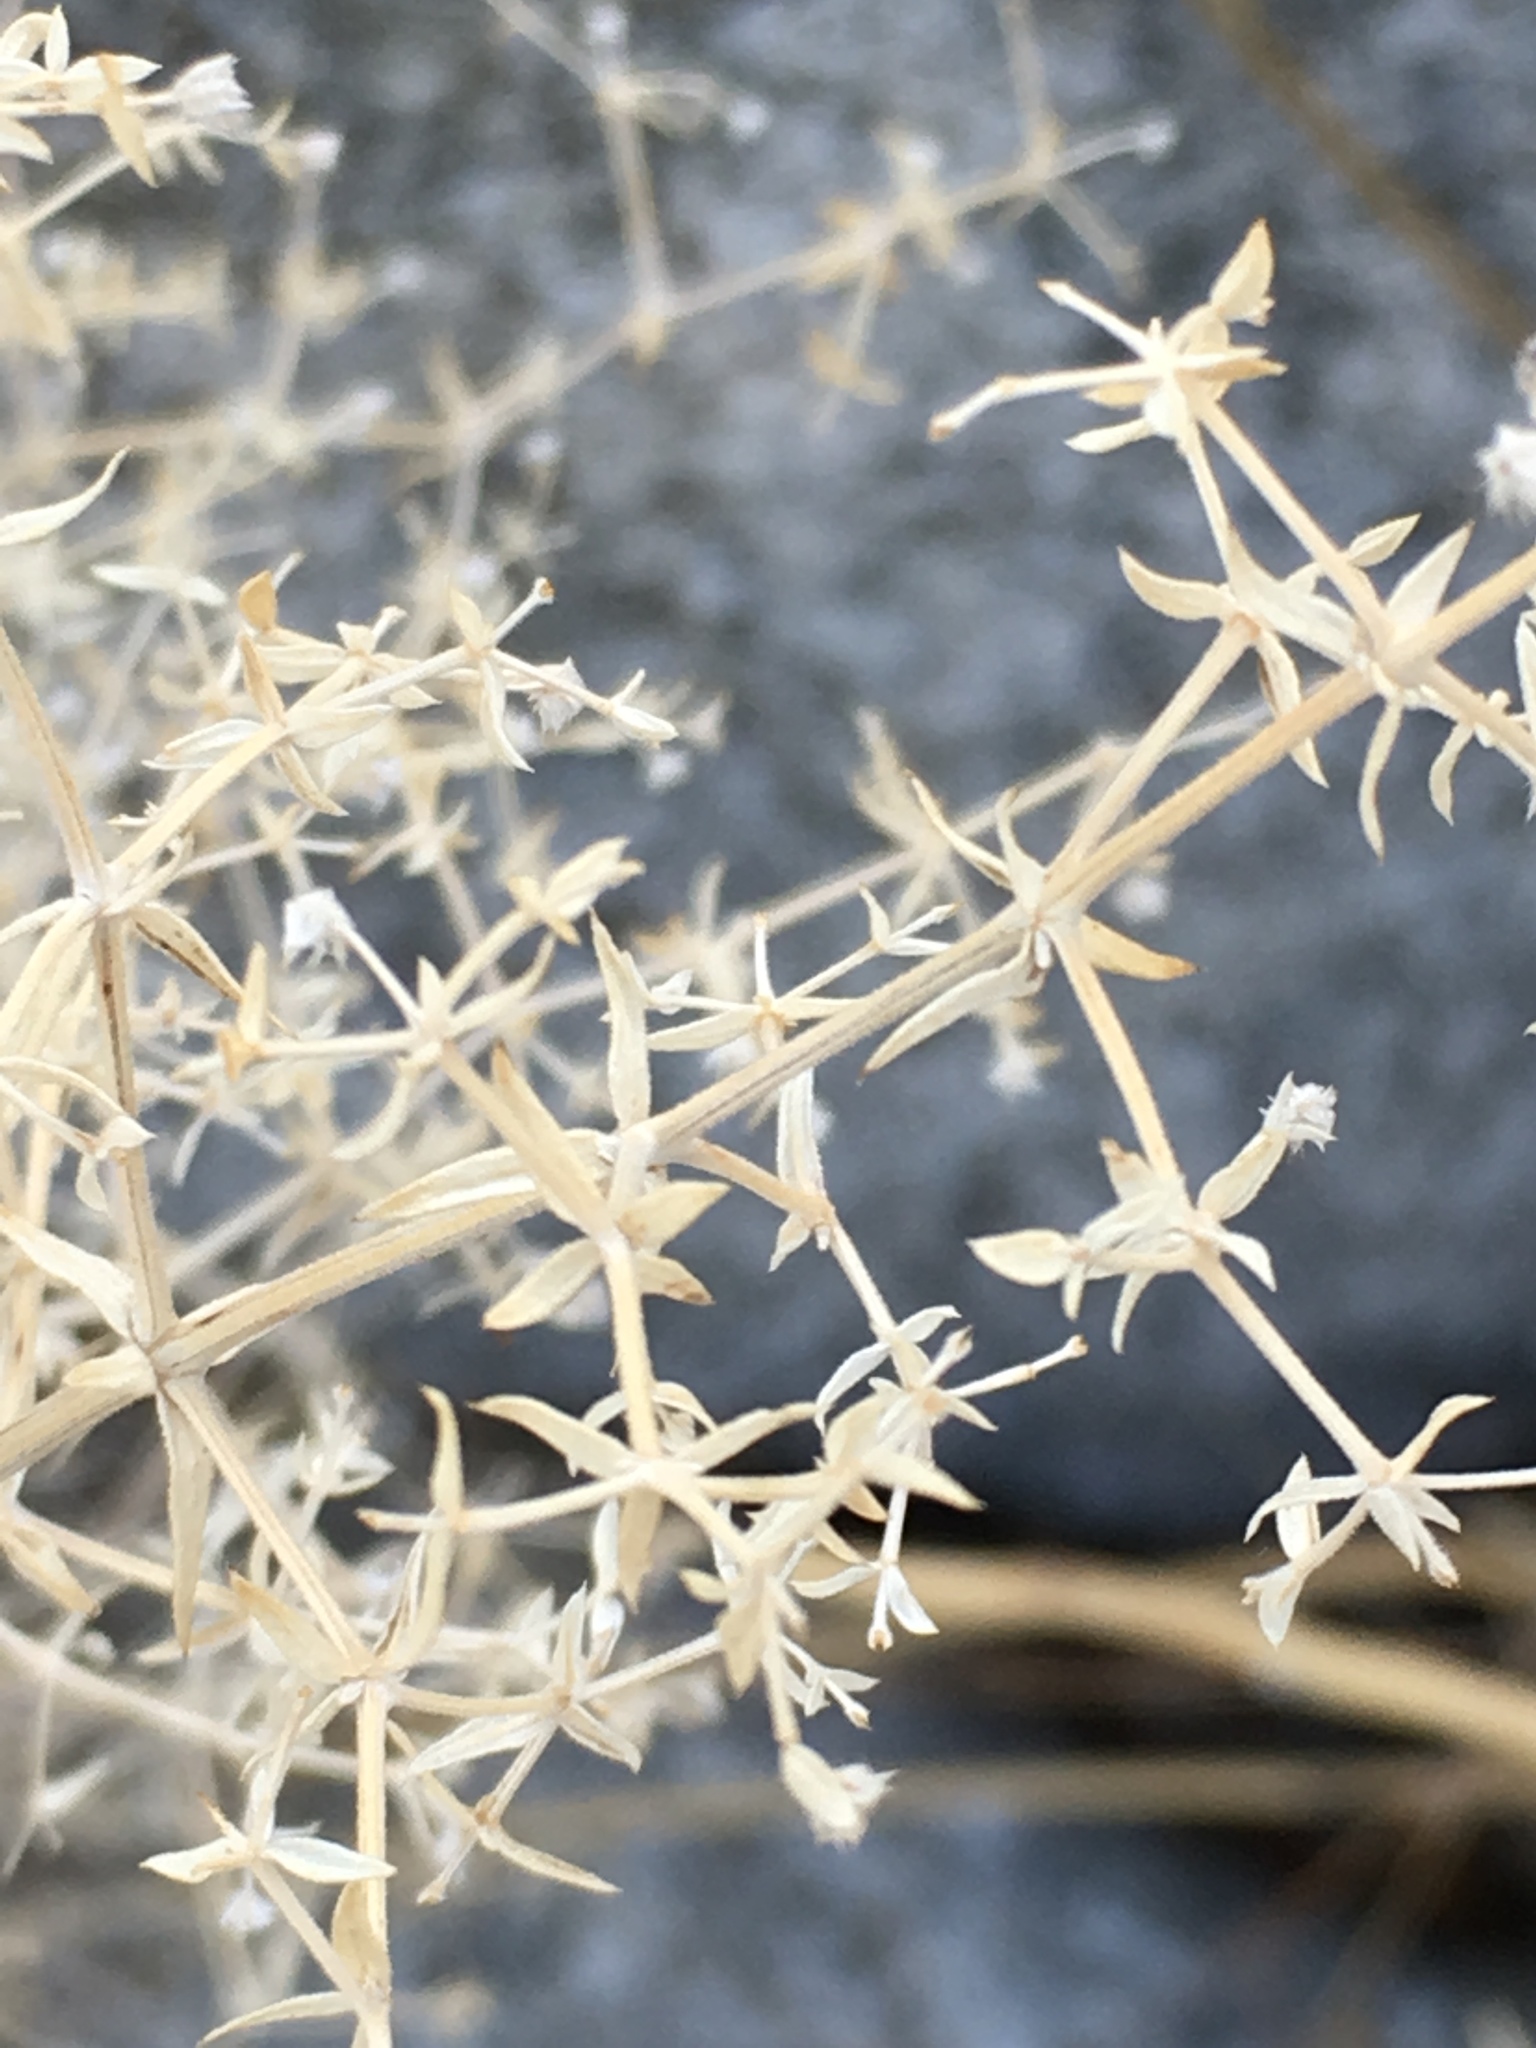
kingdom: Plantae
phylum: Tracheophyta
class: Magnoliopsida
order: Gentianales
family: Rubiaceae
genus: Galium
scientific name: Galium stellatum
